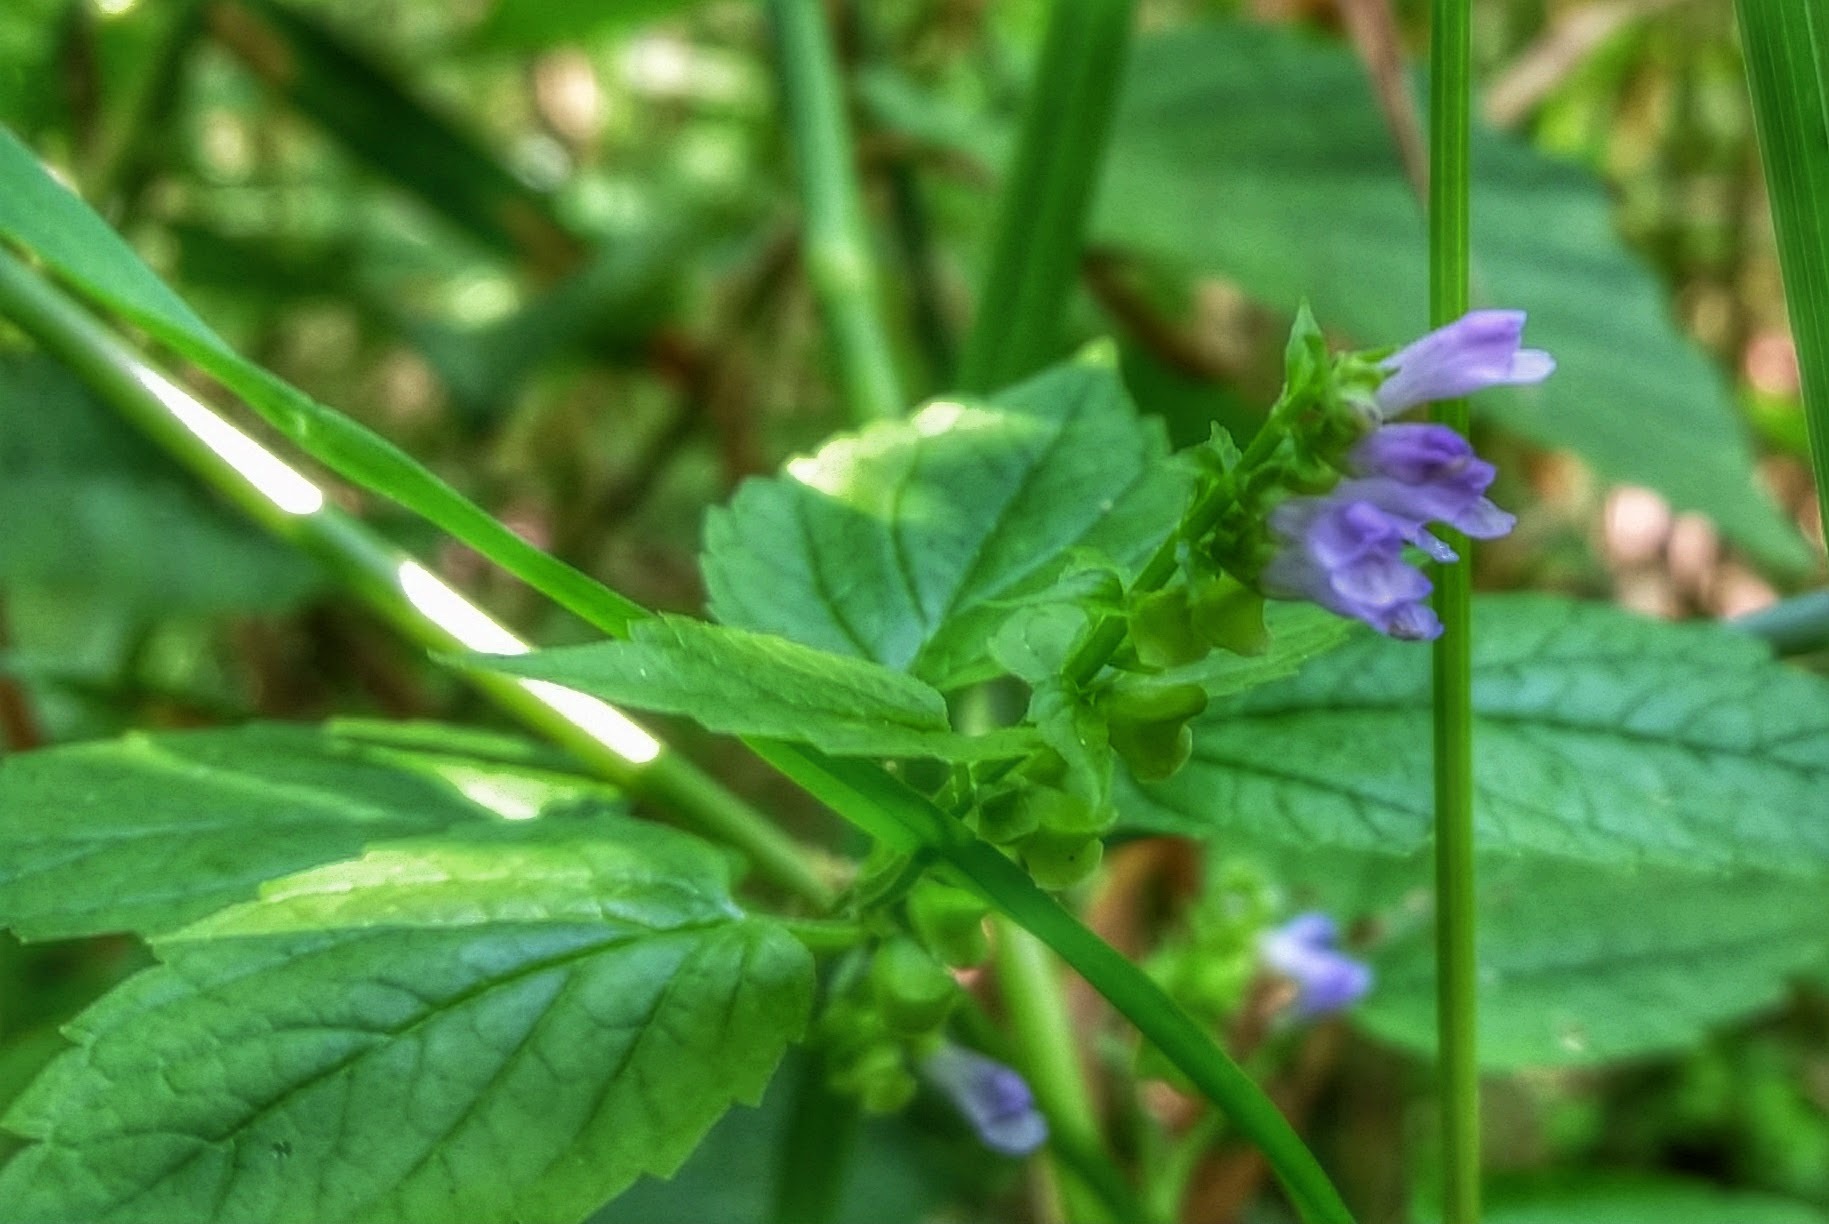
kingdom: Plantae
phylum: Tracheophyta
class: Magnoliopsida
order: Lamiales
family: Lamiaceae
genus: Scutellaria
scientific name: Scutellaria lateriflora
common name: Blue skullcap
